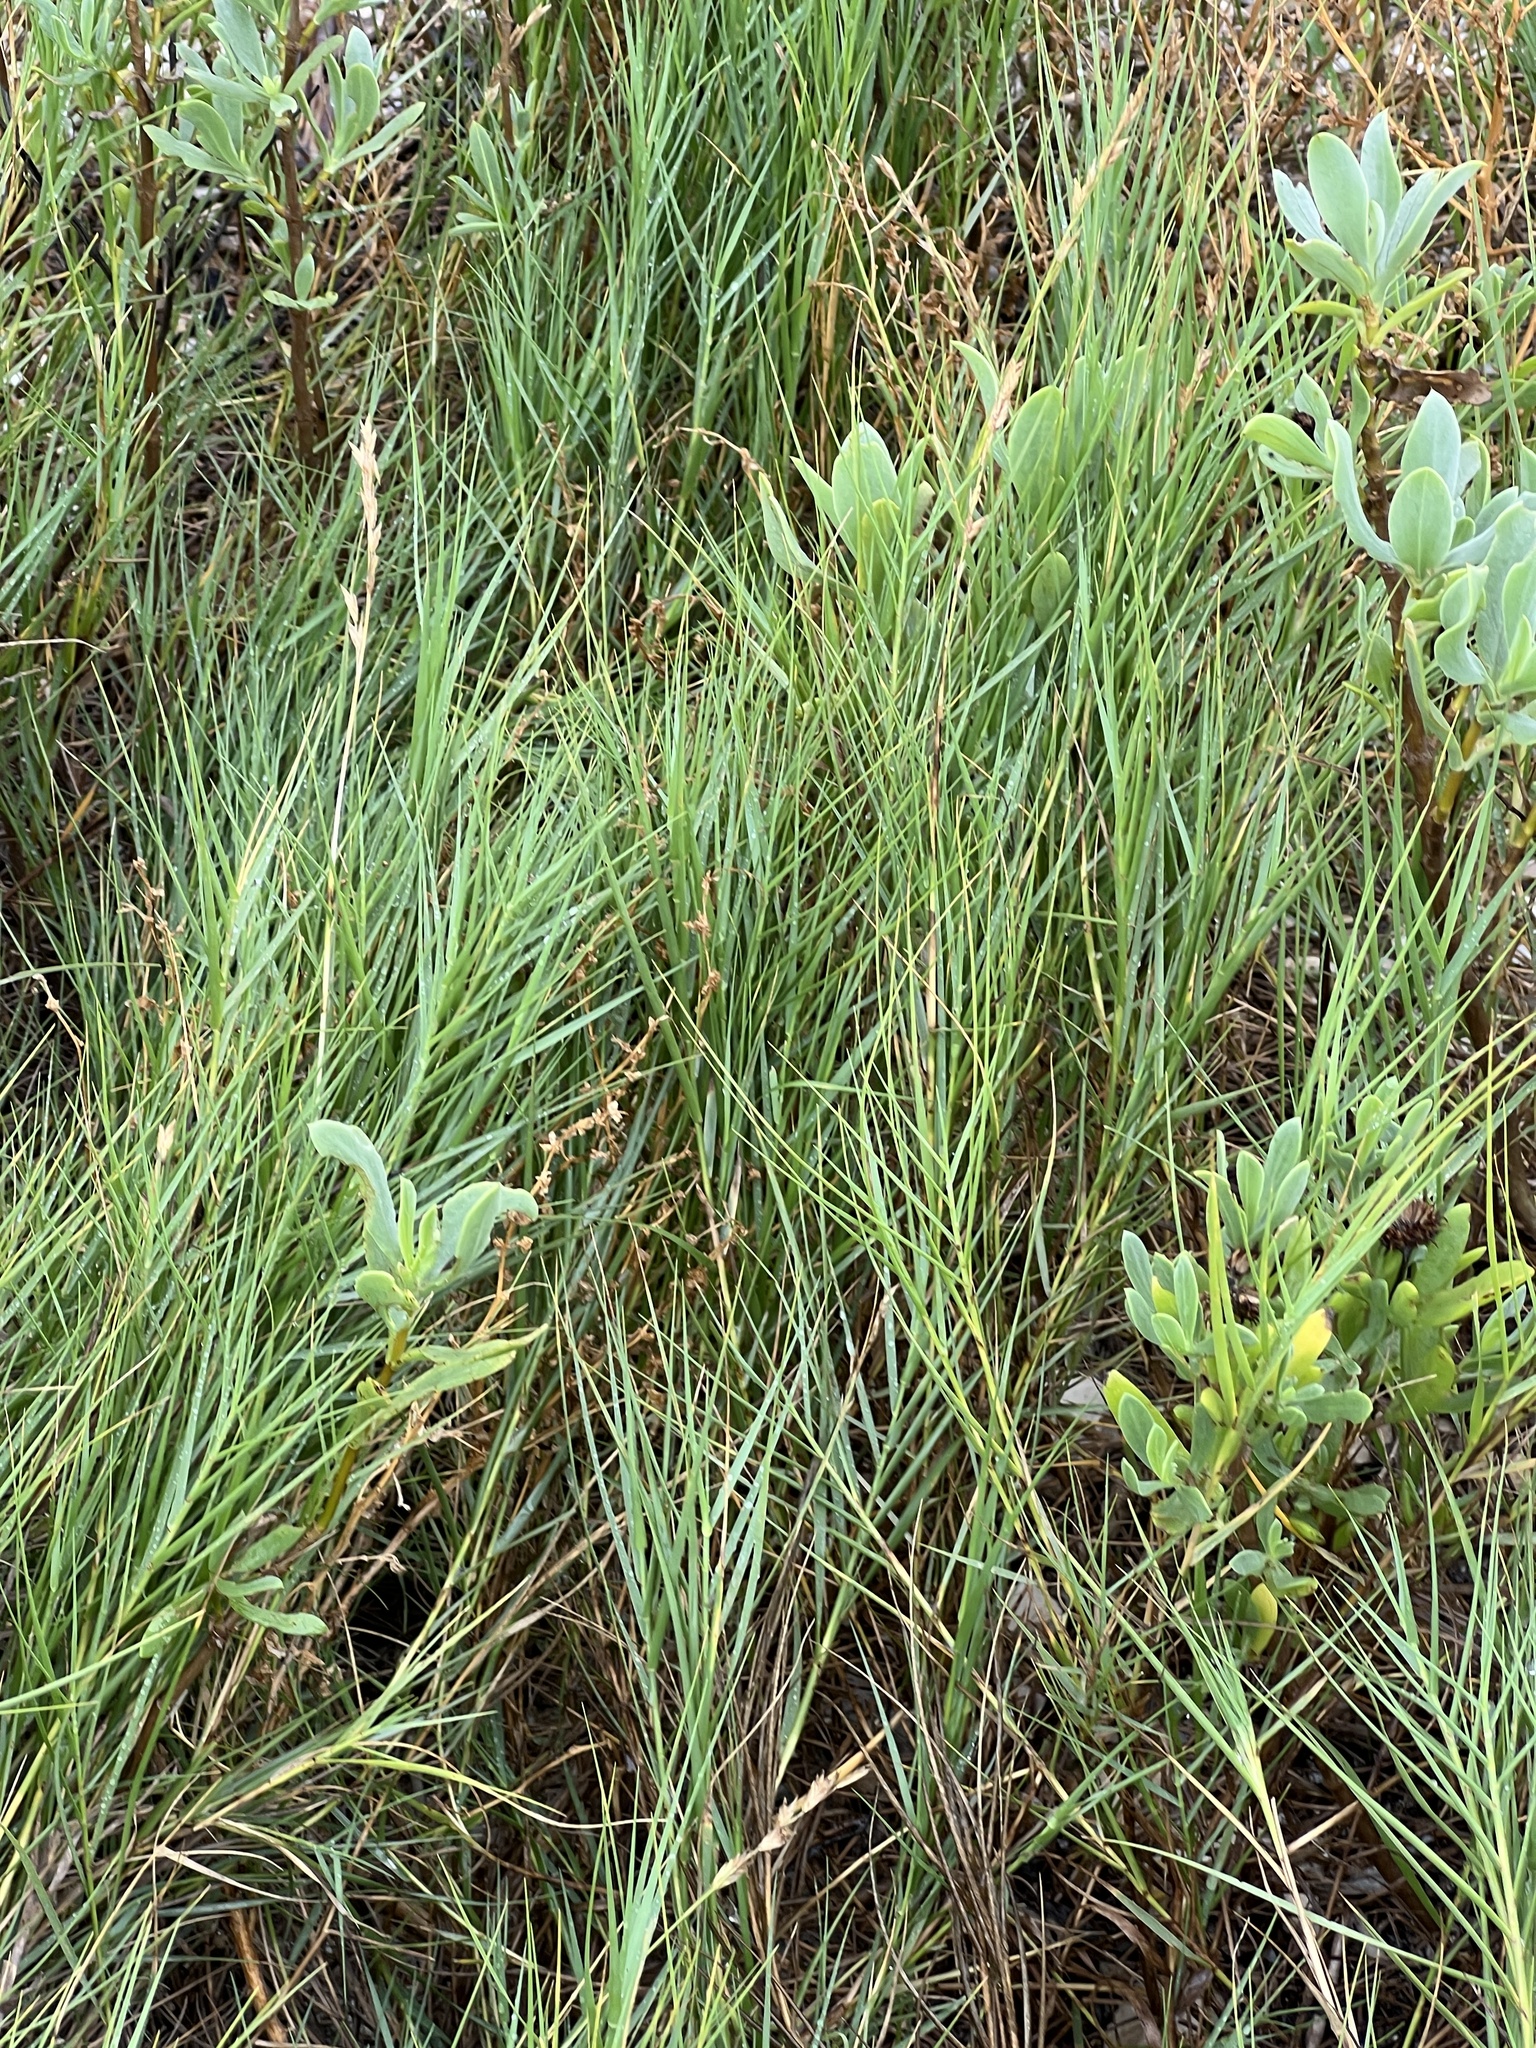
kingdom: Plantae
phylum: Tracheophyta
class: Liliopsida
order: Poales
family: Poaceae
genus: Distichlis
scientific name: Distichlis spicata
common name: Saltgrass
